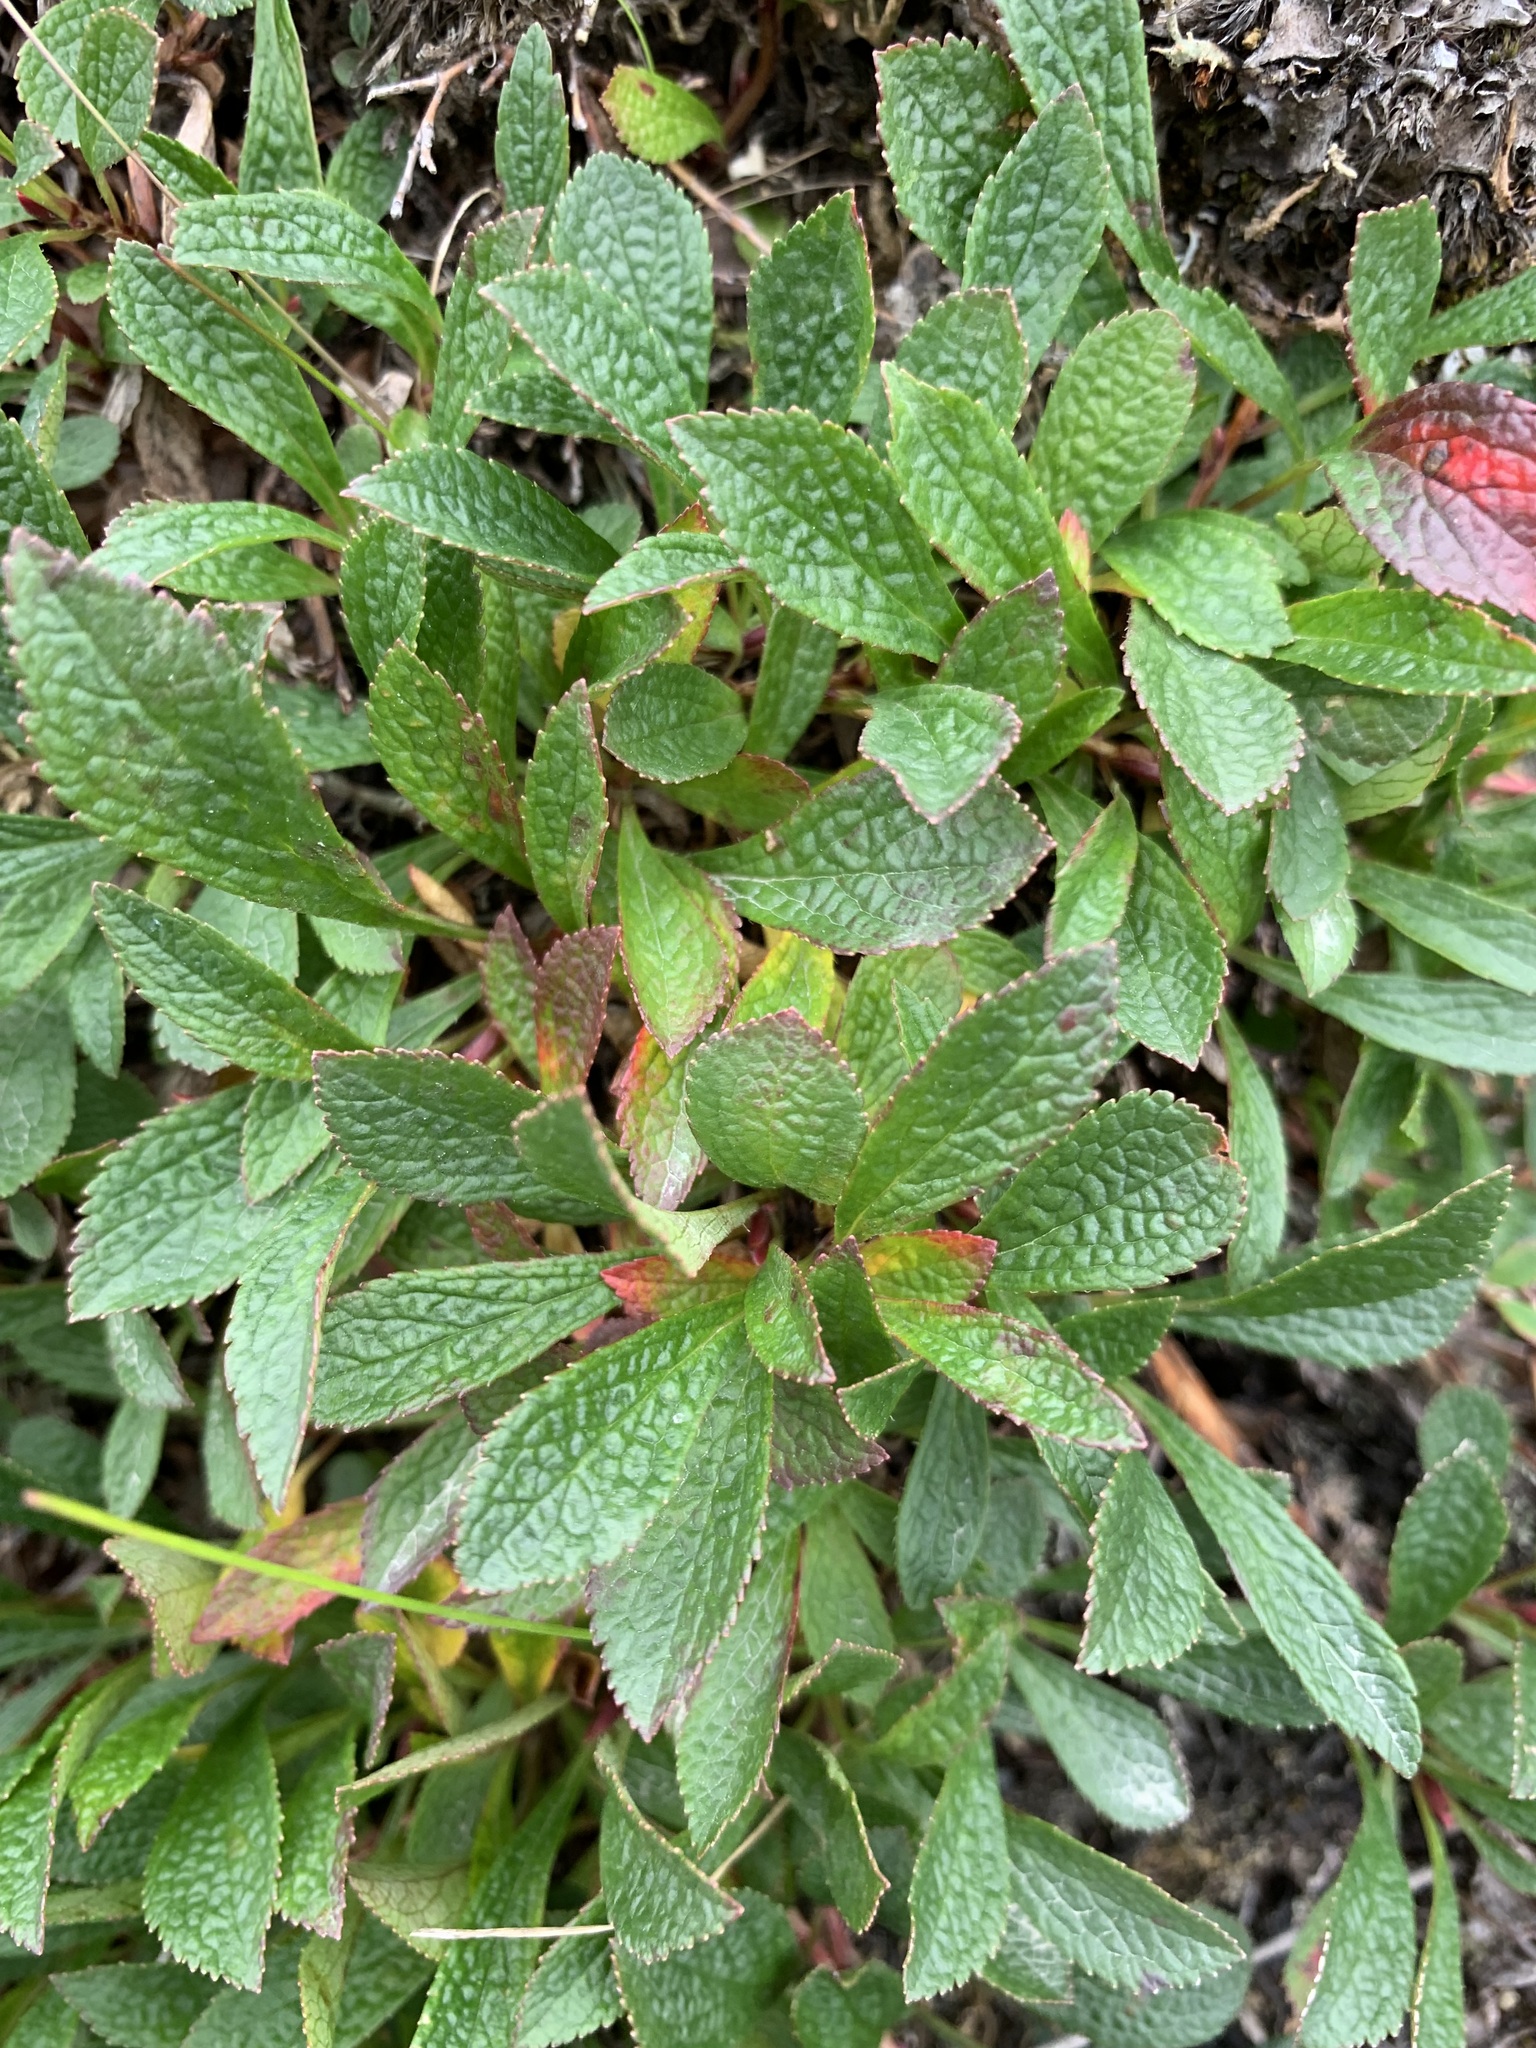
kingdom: Plantae
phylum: Tracheophyta
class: Magnoliopsida
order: Ericales
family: Ericaceae
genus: Arctostaphylos
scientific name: Arctostaphylos alpinus
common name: Alpine bearberry
